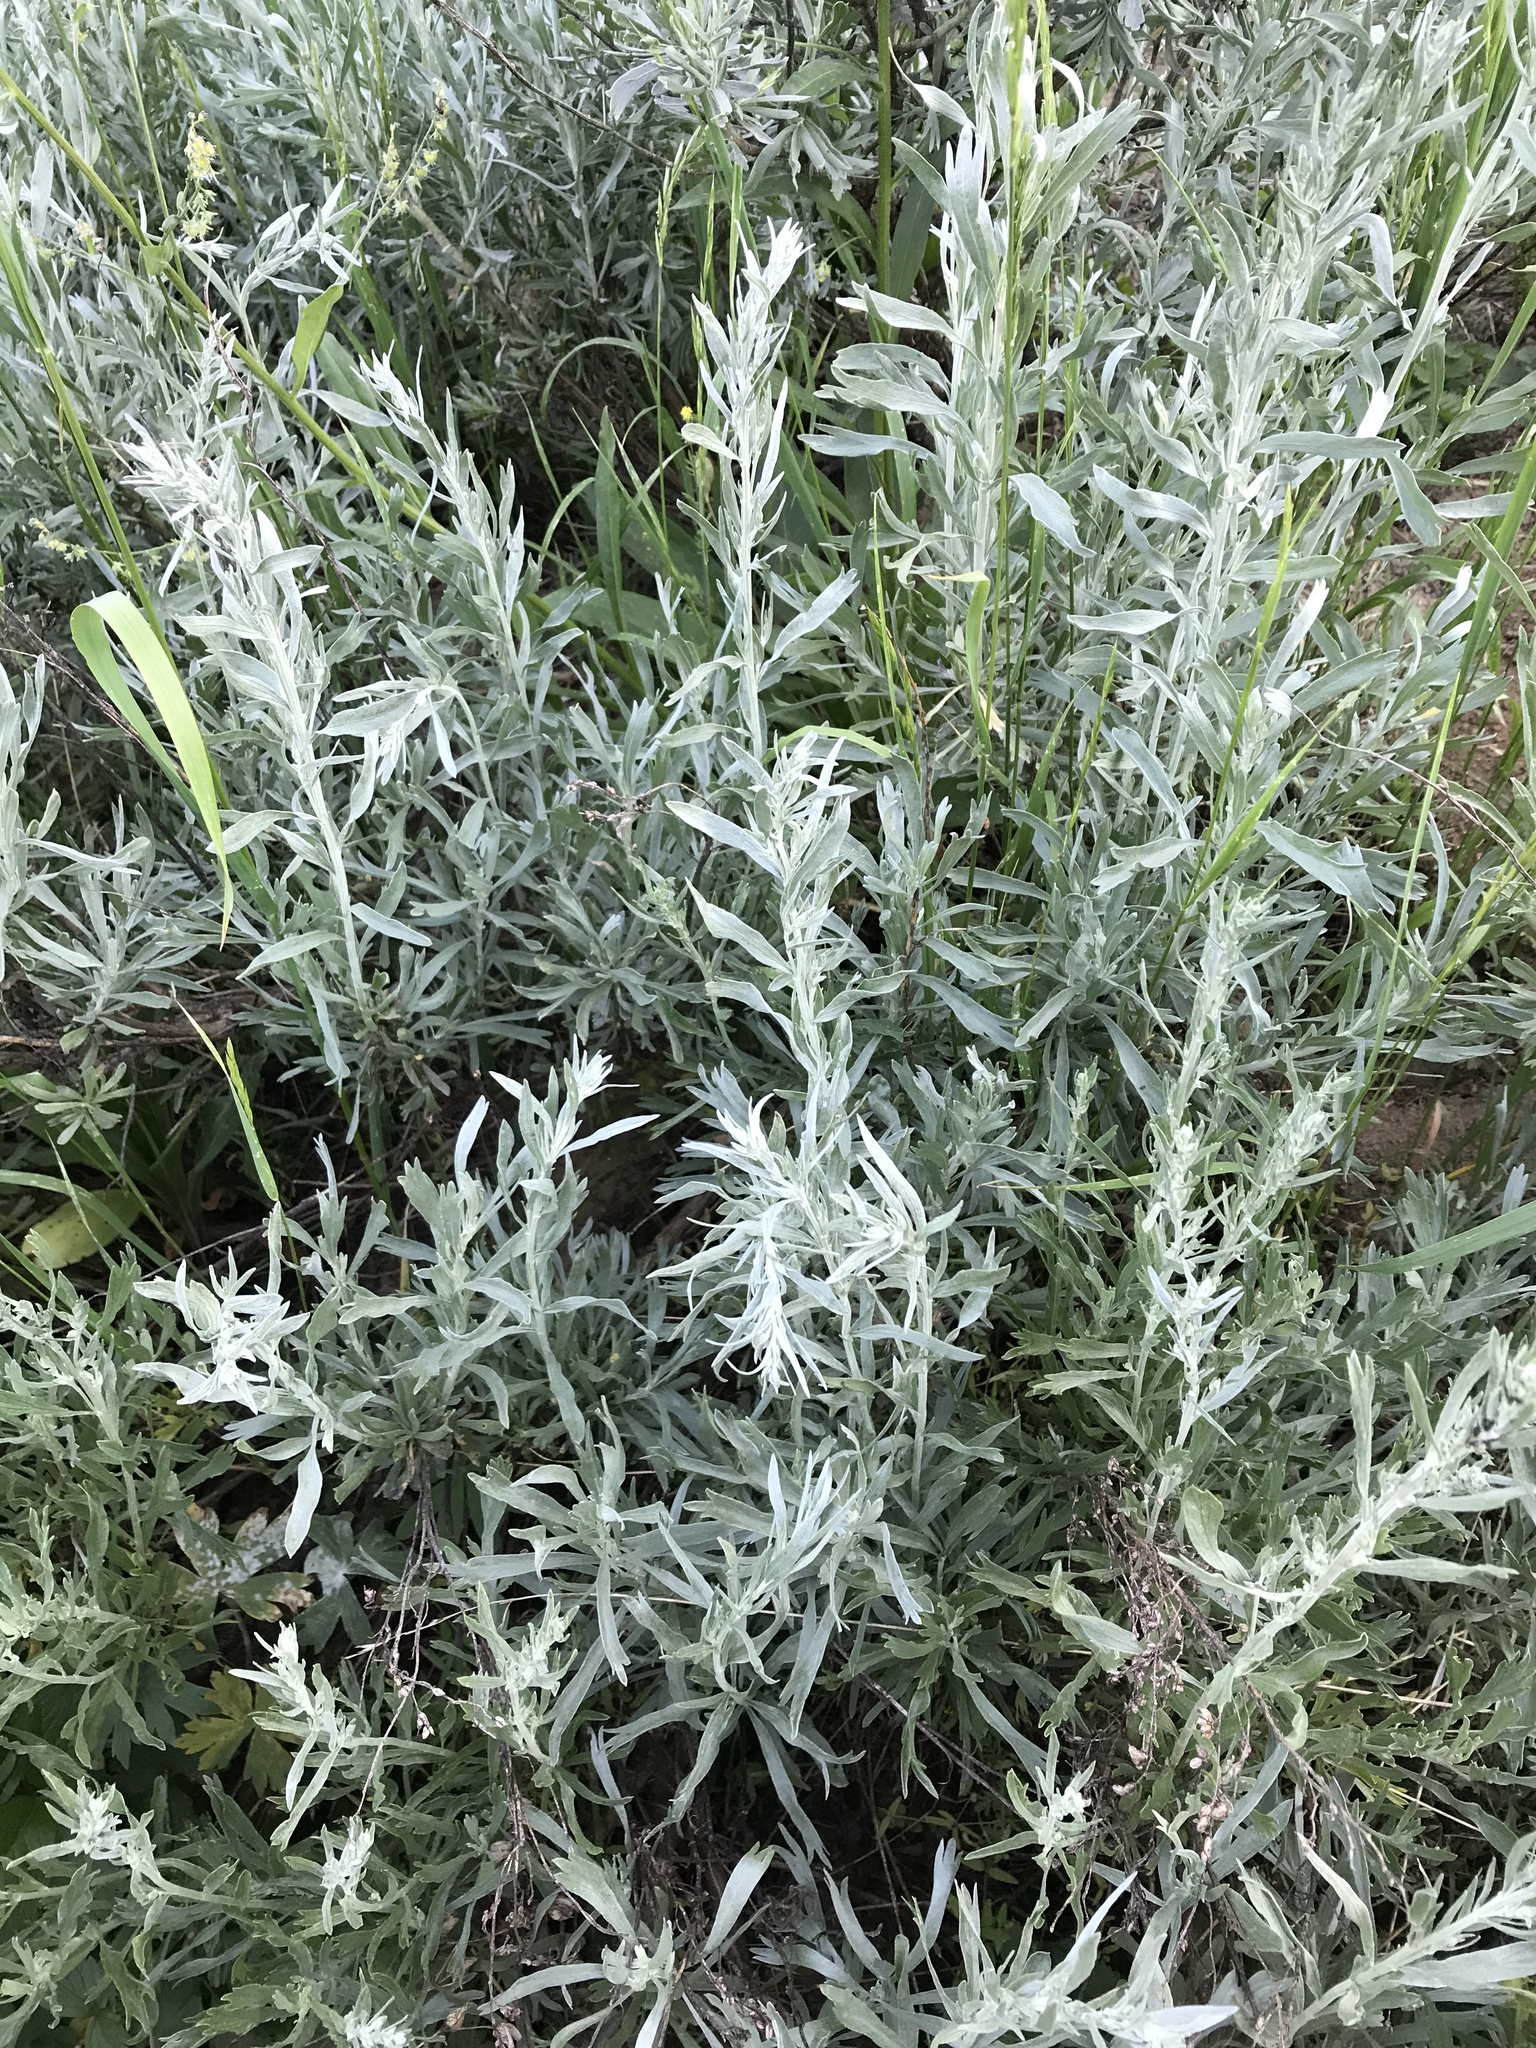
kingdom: Plantae
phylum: Tracheophyta
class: Magnoliopsida
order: Asterales
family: Asteraceae
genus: Artemisia
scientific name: Artemisia ludoviciana
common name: Western mugwort
